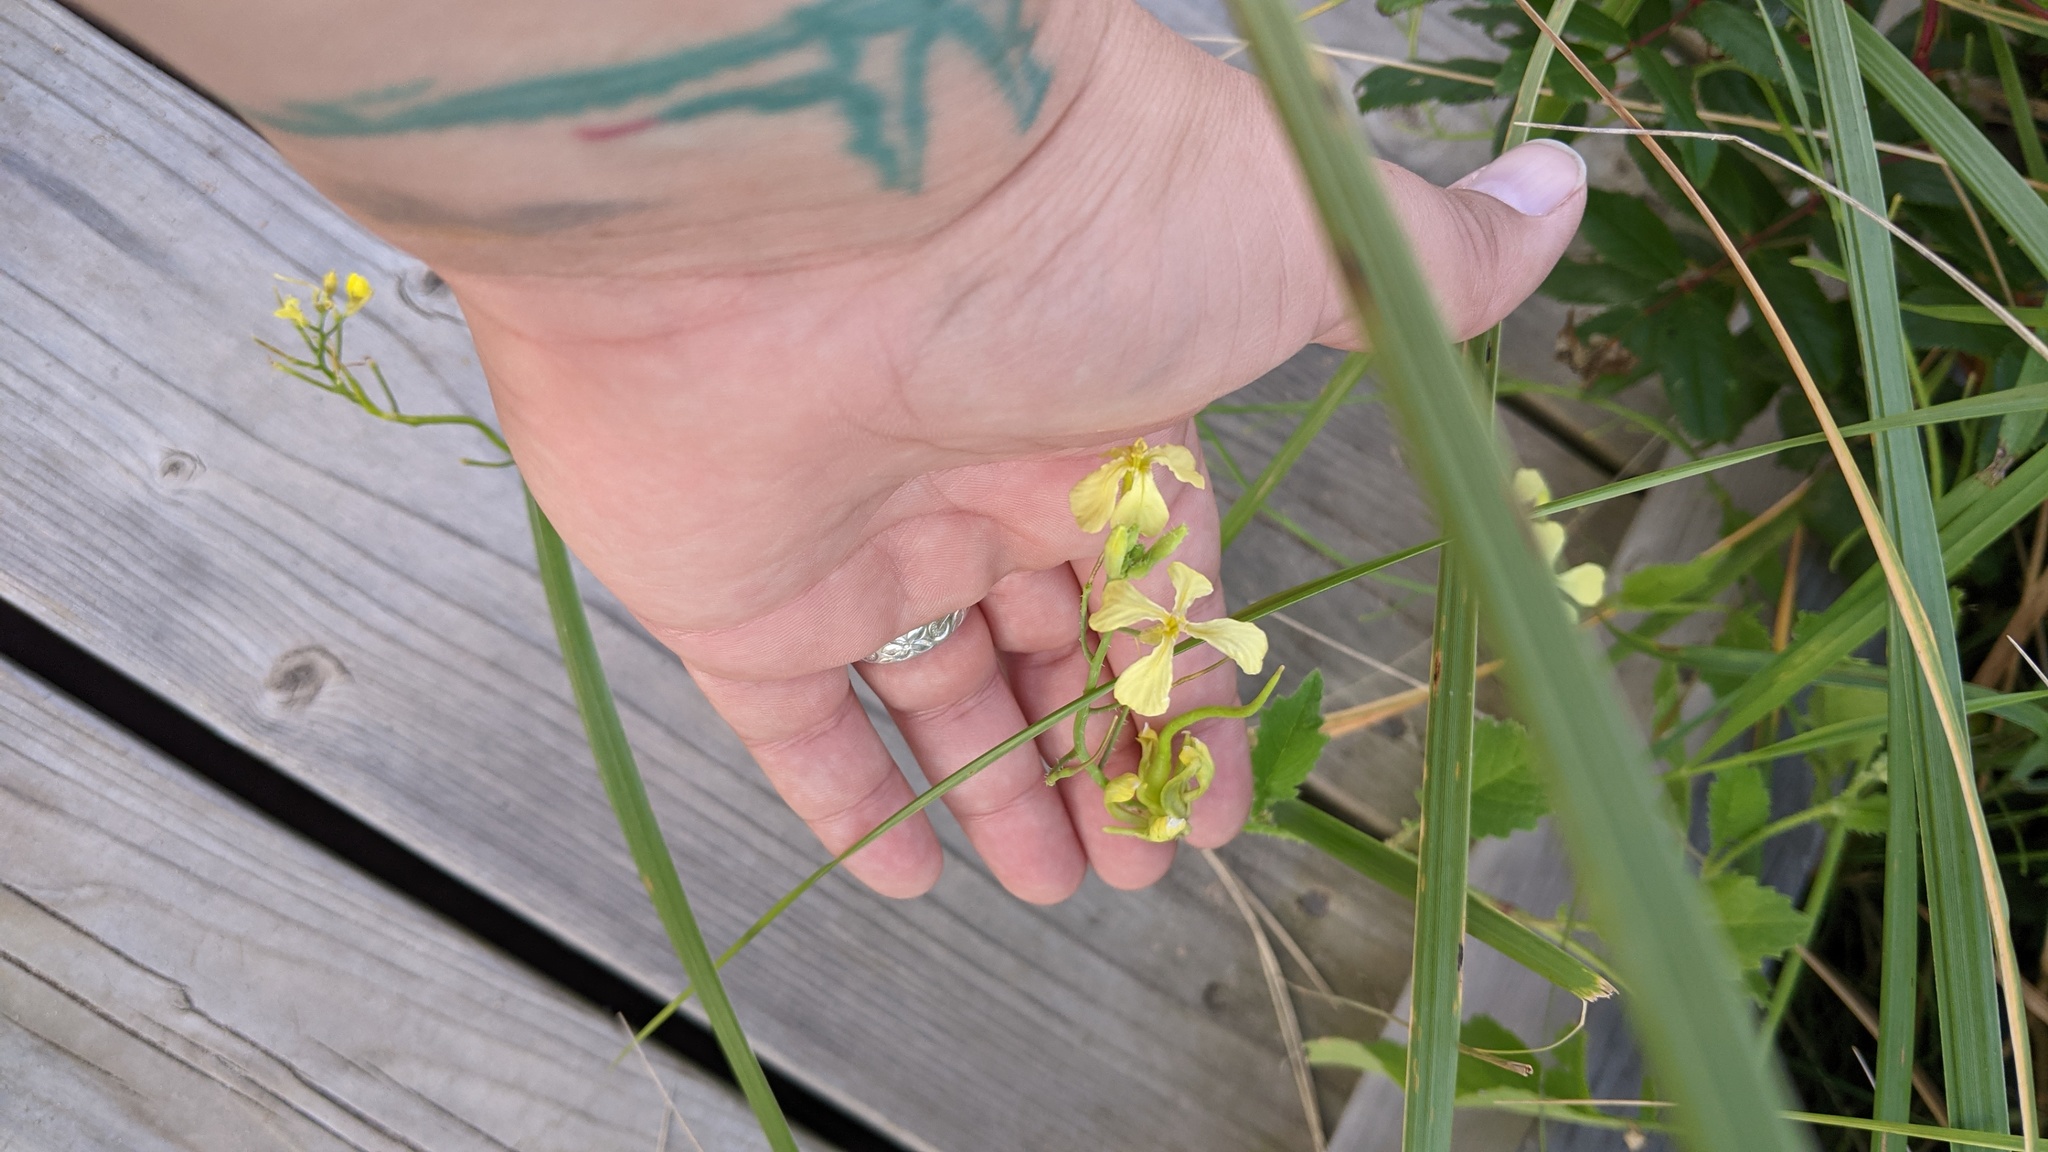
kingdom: Plantae
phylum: Tracheophyta
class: Magnoliopsida
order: Brassicales
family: Brassicaceae
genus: Raphanus
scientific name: Raphanus raphanistrum
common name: Wild radish
